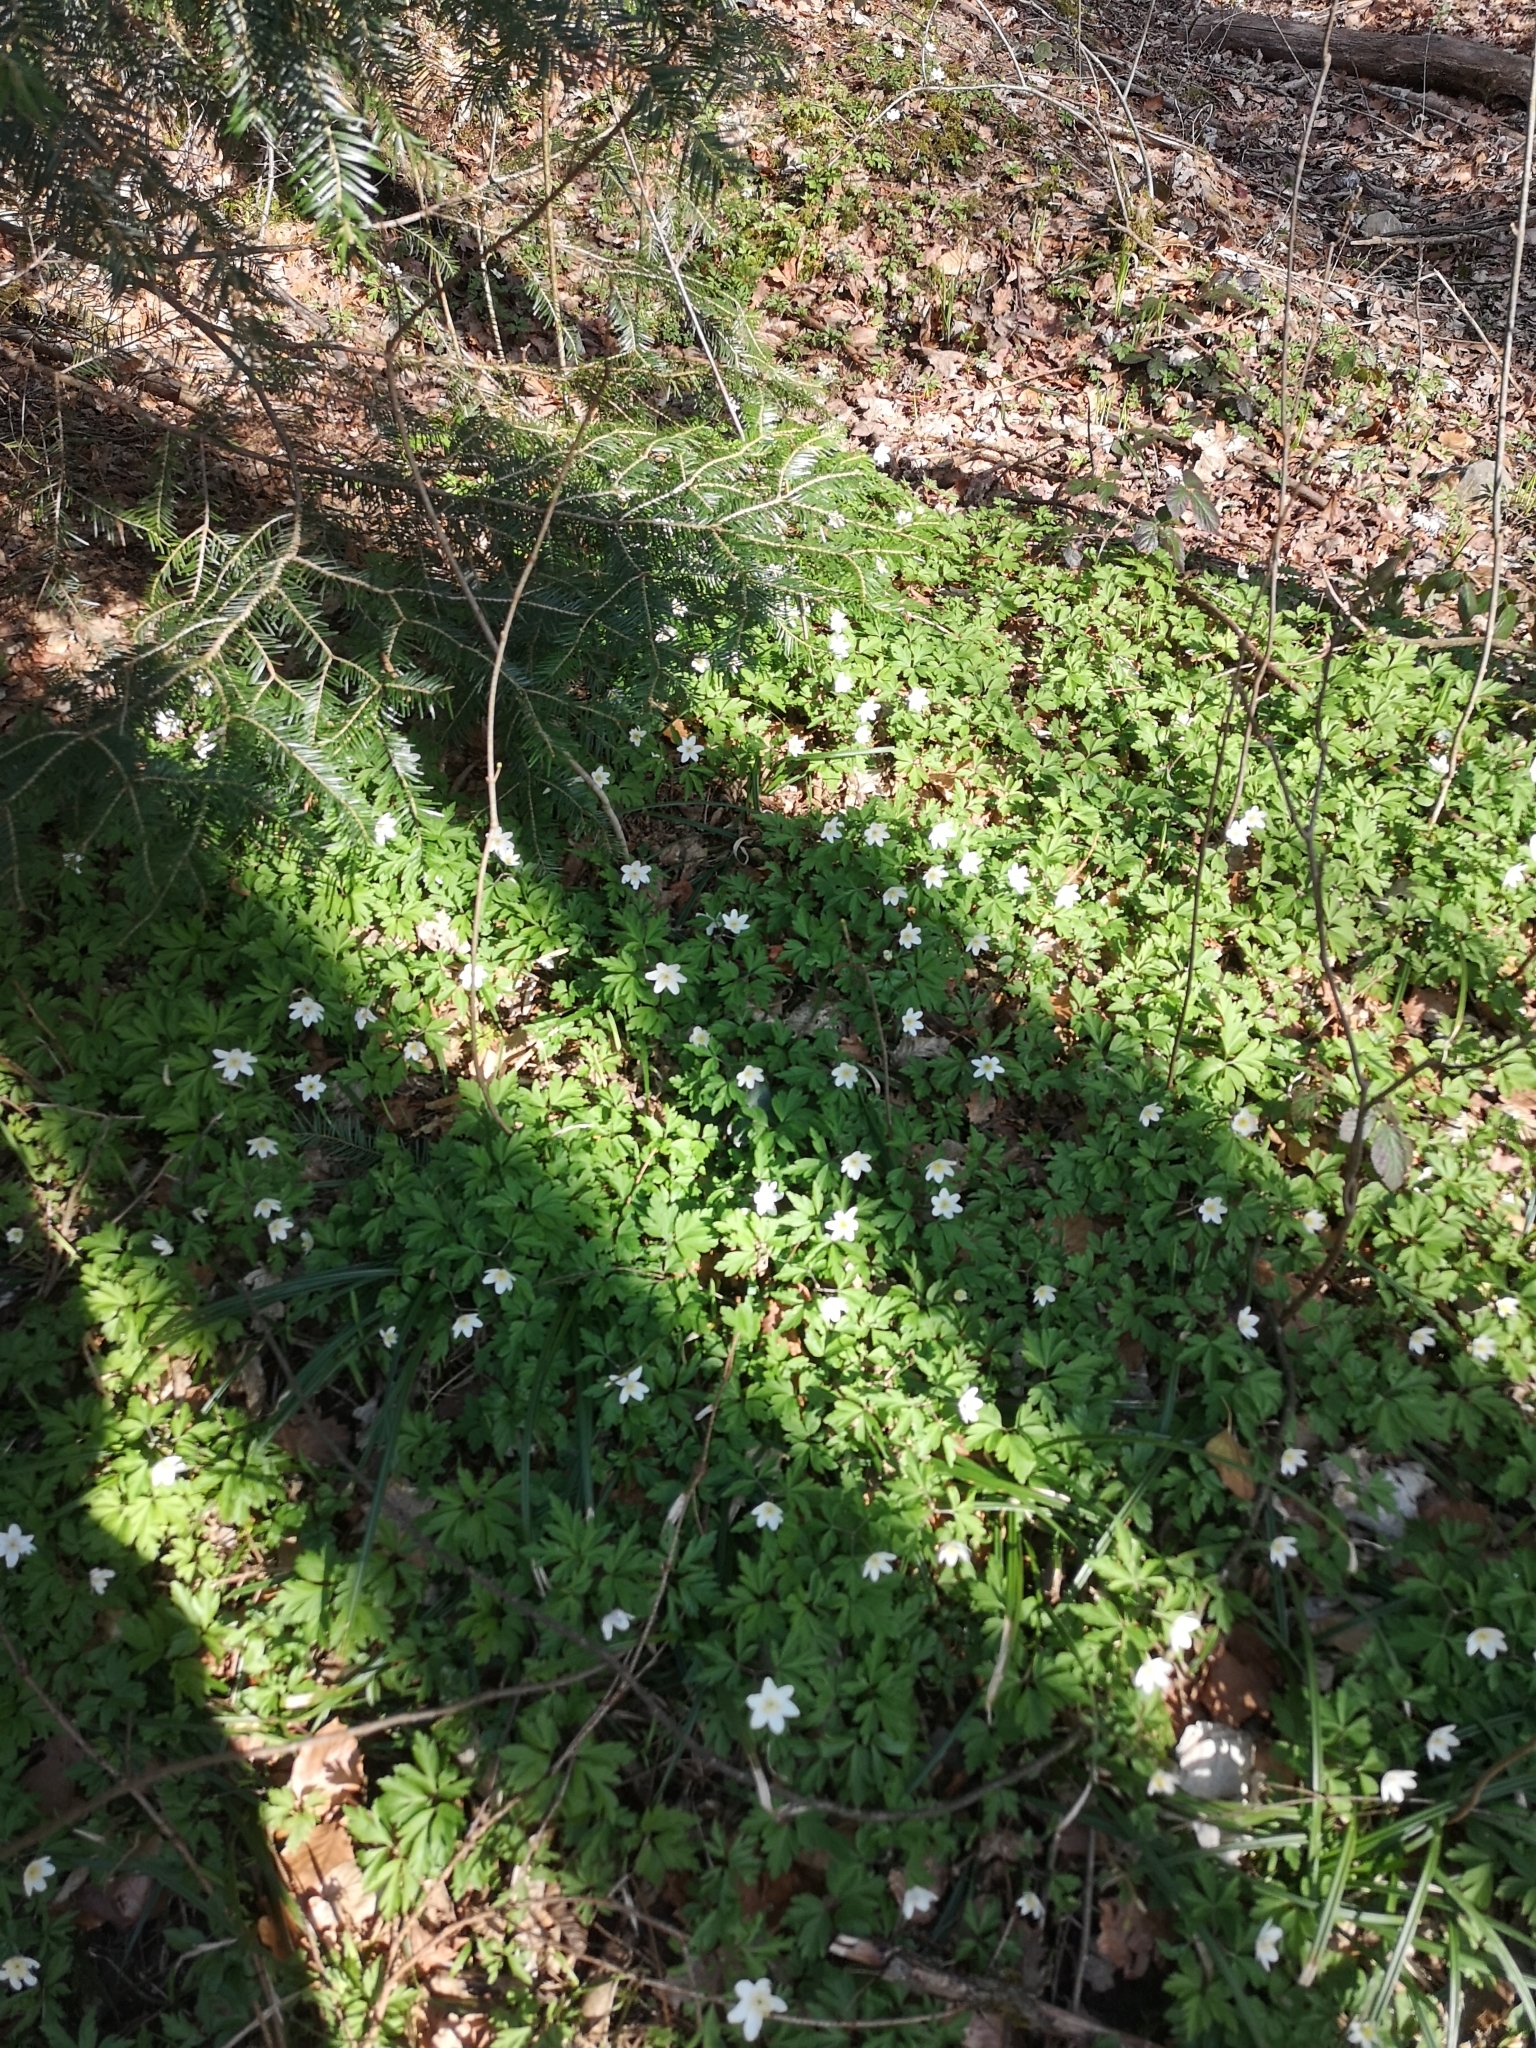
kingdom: Plantae
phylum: Tracheophyta
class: Magnoliopsida
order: Ranunculales
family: Ranunculaceae
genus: Anemone
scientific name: Anemone nemorosa
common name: Wood anemone
